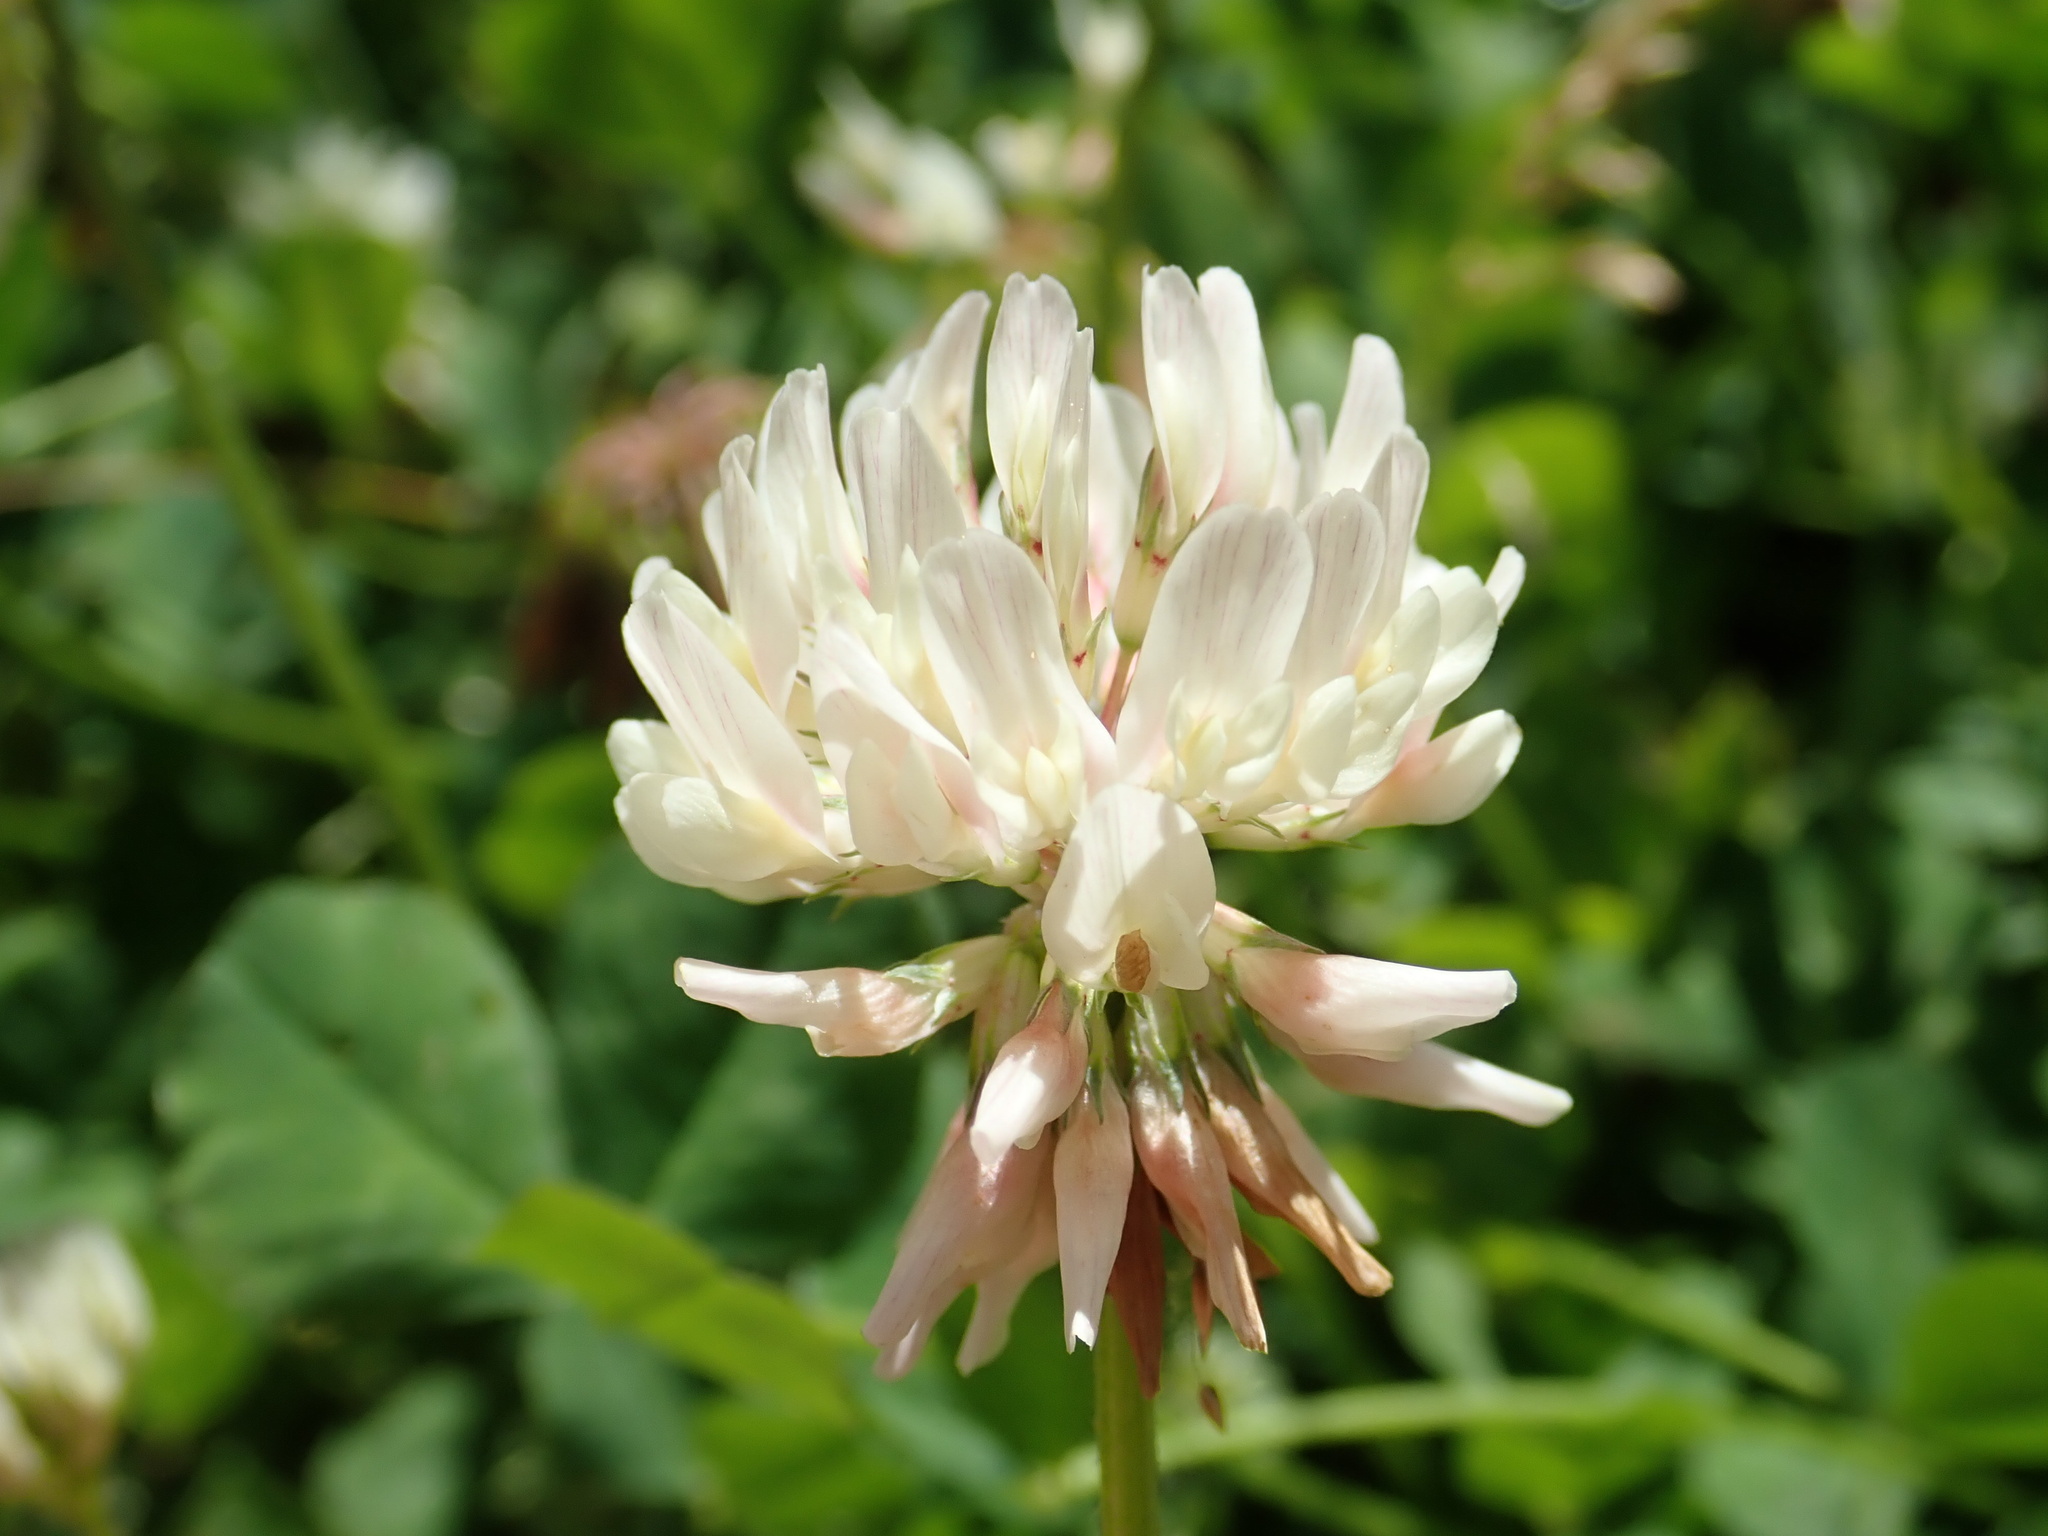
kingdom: Plantae
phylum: Tracheophyta
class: Magnoliopsida
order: Fabales
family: Fabaceae
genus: Trifolium
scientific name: Trifolium repens
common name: White clover
